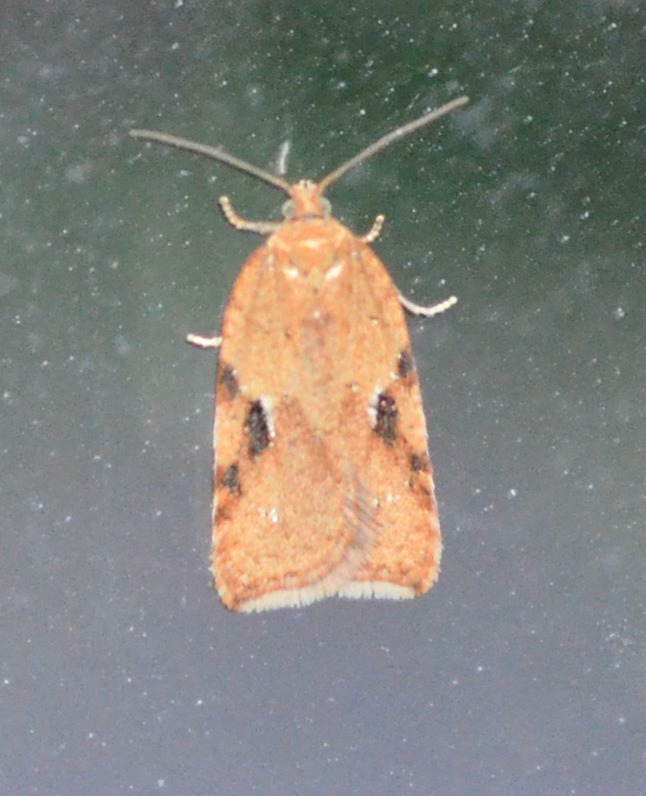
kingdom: Animalia
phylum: Arthropoda
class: Insecta
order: Lepidoptera
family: Tortricidae
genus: Acleris
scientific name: Acleris subnivana
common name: Bent-winged acleris moth
